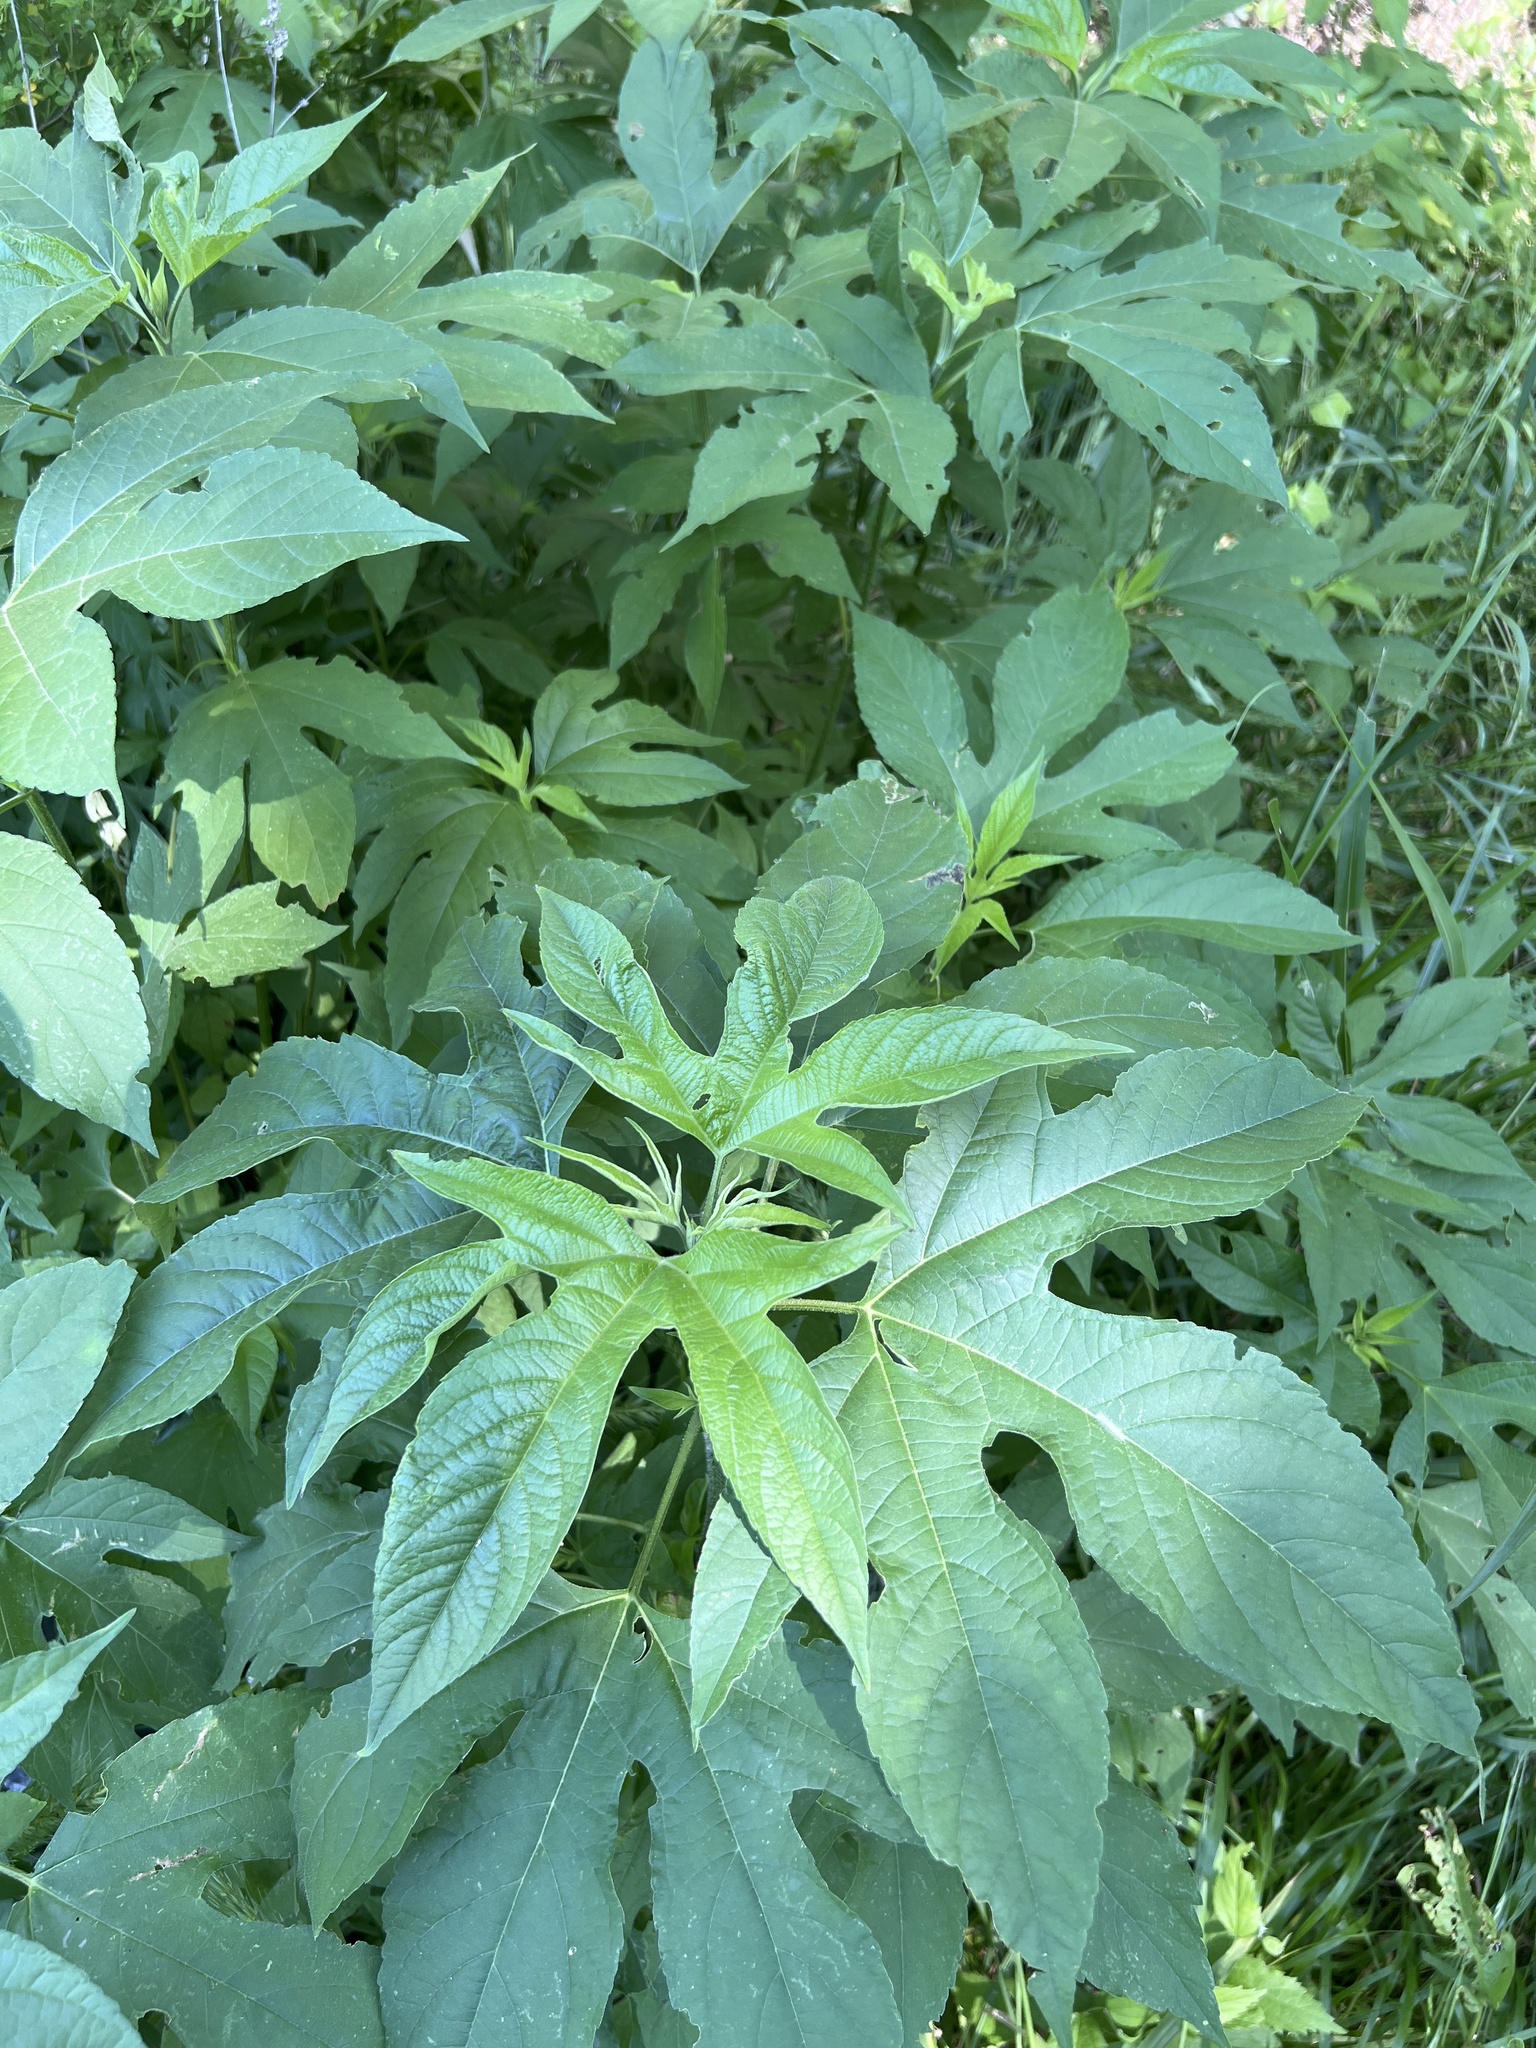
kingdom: Plantae
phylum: Tracheophyta
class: Magnoliopsida
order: Asterales
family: Asteraceae
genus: Ambrosia
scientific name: Ambrosia trifida
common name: Giant ragweed
